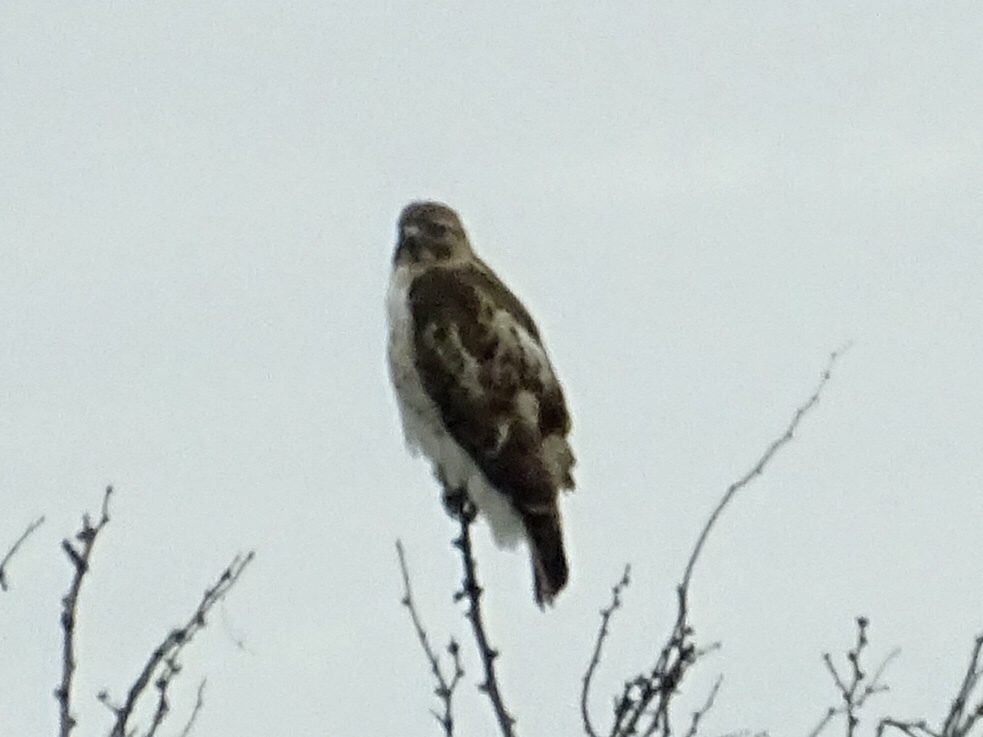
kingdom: Animalia
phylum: Chordata
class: Aves
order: Accipitriformes
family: Accipitridae
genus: Buteo
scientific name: Buteo jamaicensis
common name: Red-tailed hawk
